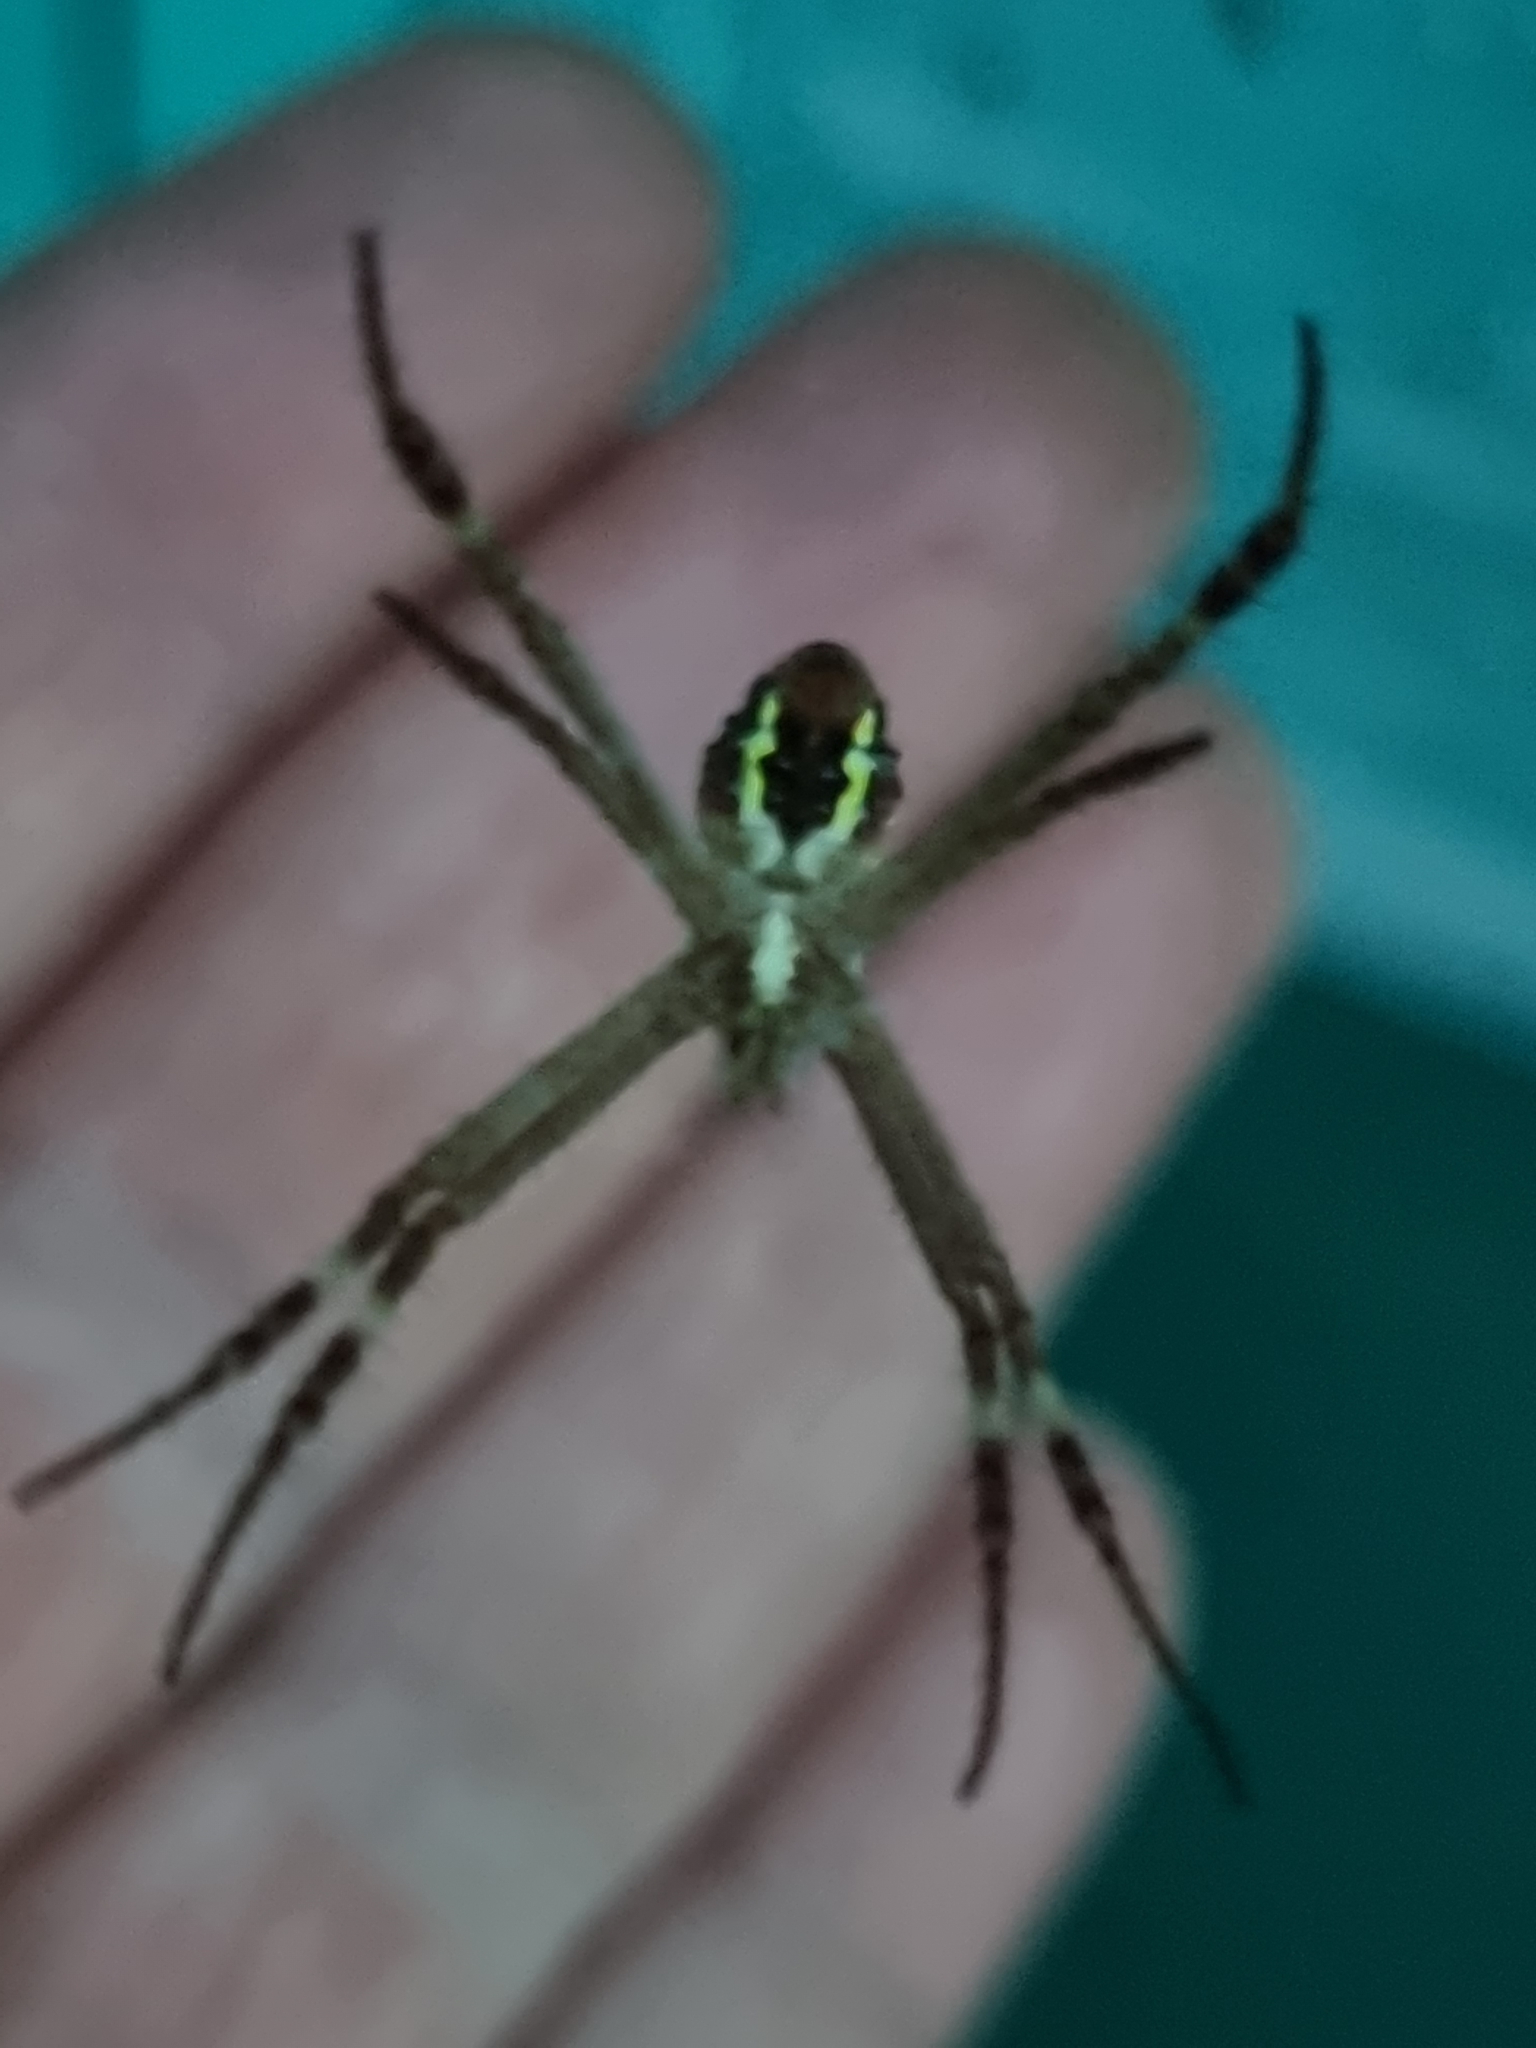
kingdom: Animalia
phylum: Arthropoda
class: Arachnida
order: Araneae
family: Araneidae
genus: Argiope
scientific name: Argiope keyserlingi
